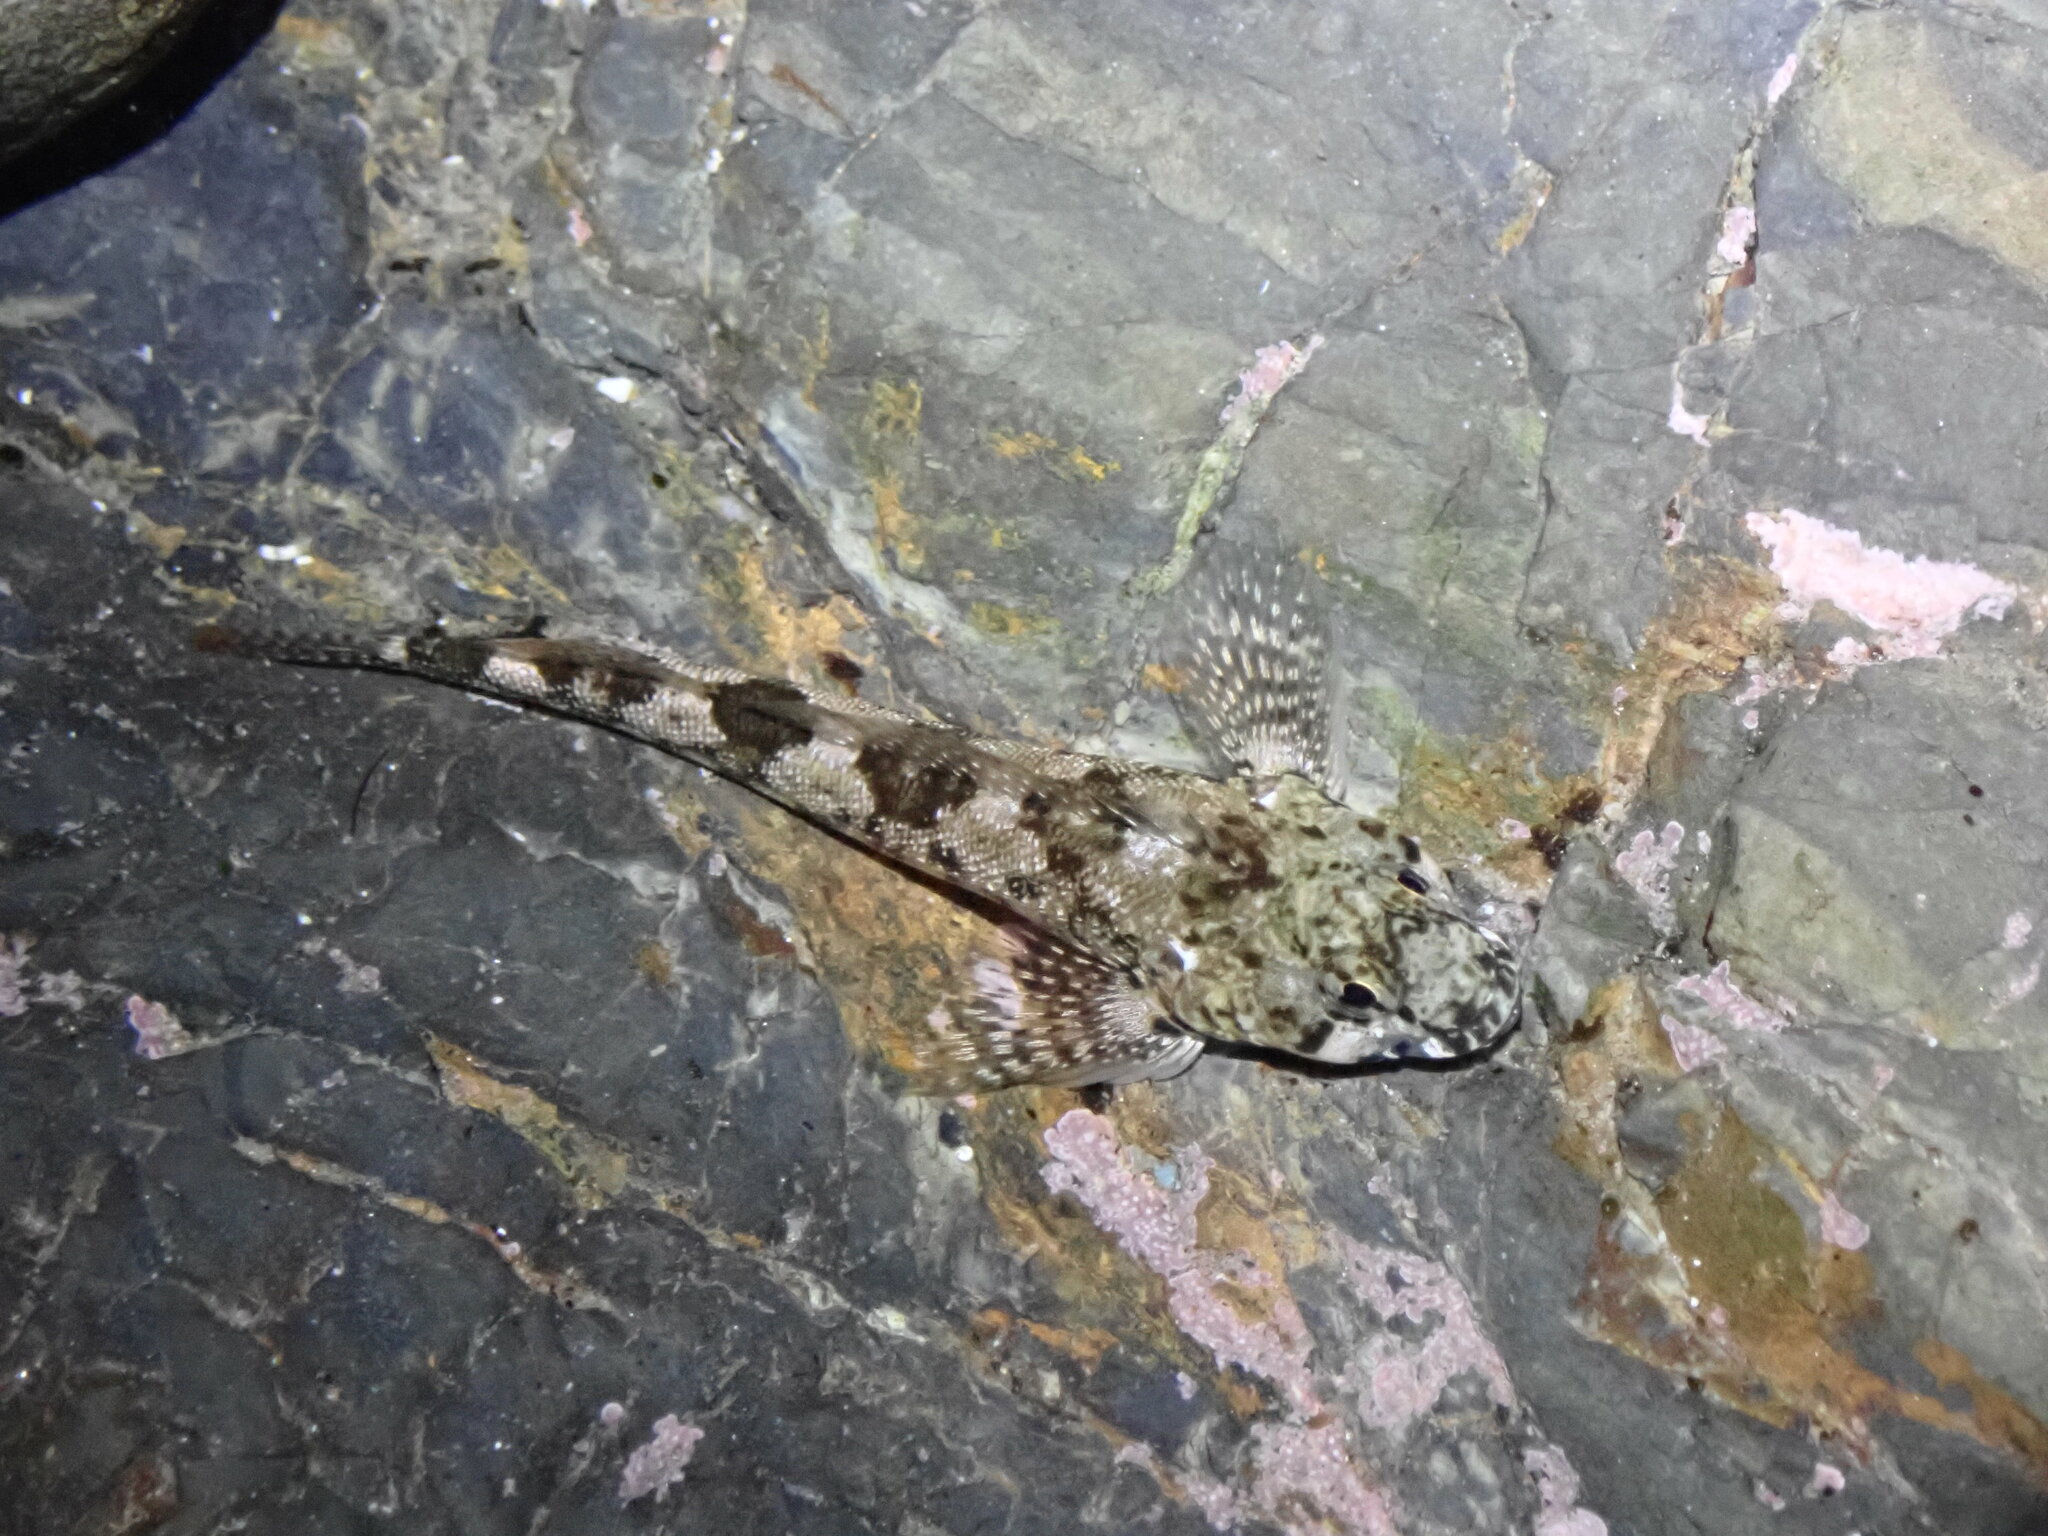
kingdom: Animalia
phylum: Chordata
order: Perciformes
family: Tripterygiidae
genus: Bellapiscis
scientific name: Bellapiscis medius
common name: Twister
